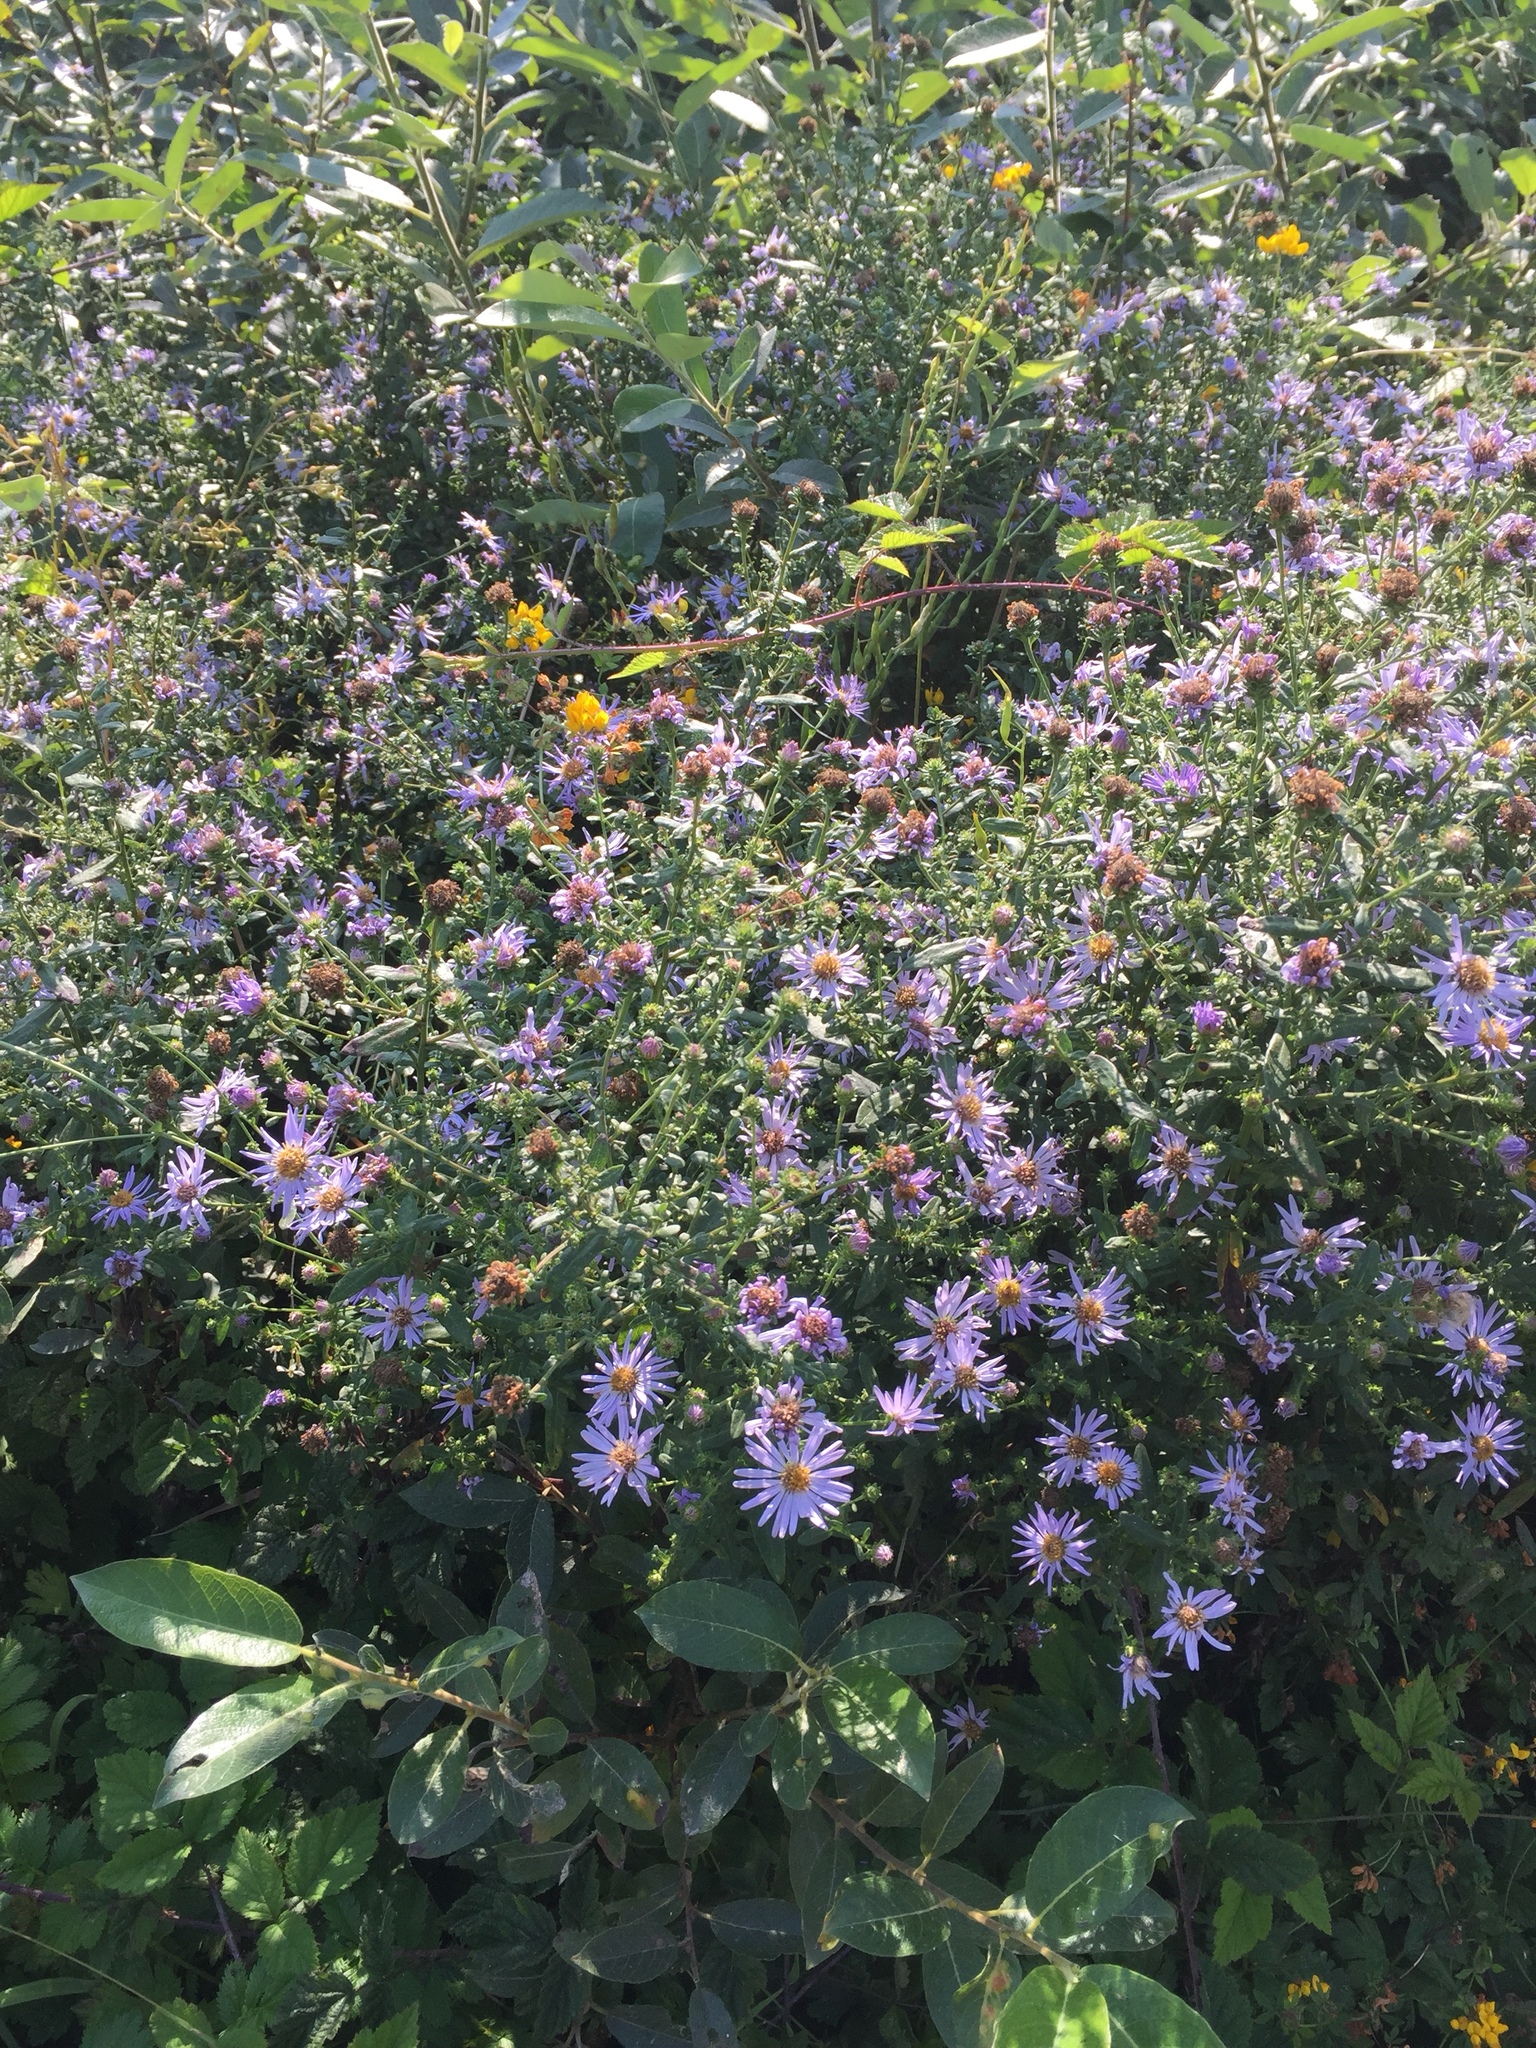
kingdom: Plantae
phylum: Tracheophyta
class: Magnoliopsida
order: Asterales
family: Asteraceae
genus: Symphyotrichum
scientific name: Symphyotrichum chilense
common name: Pacific aster
